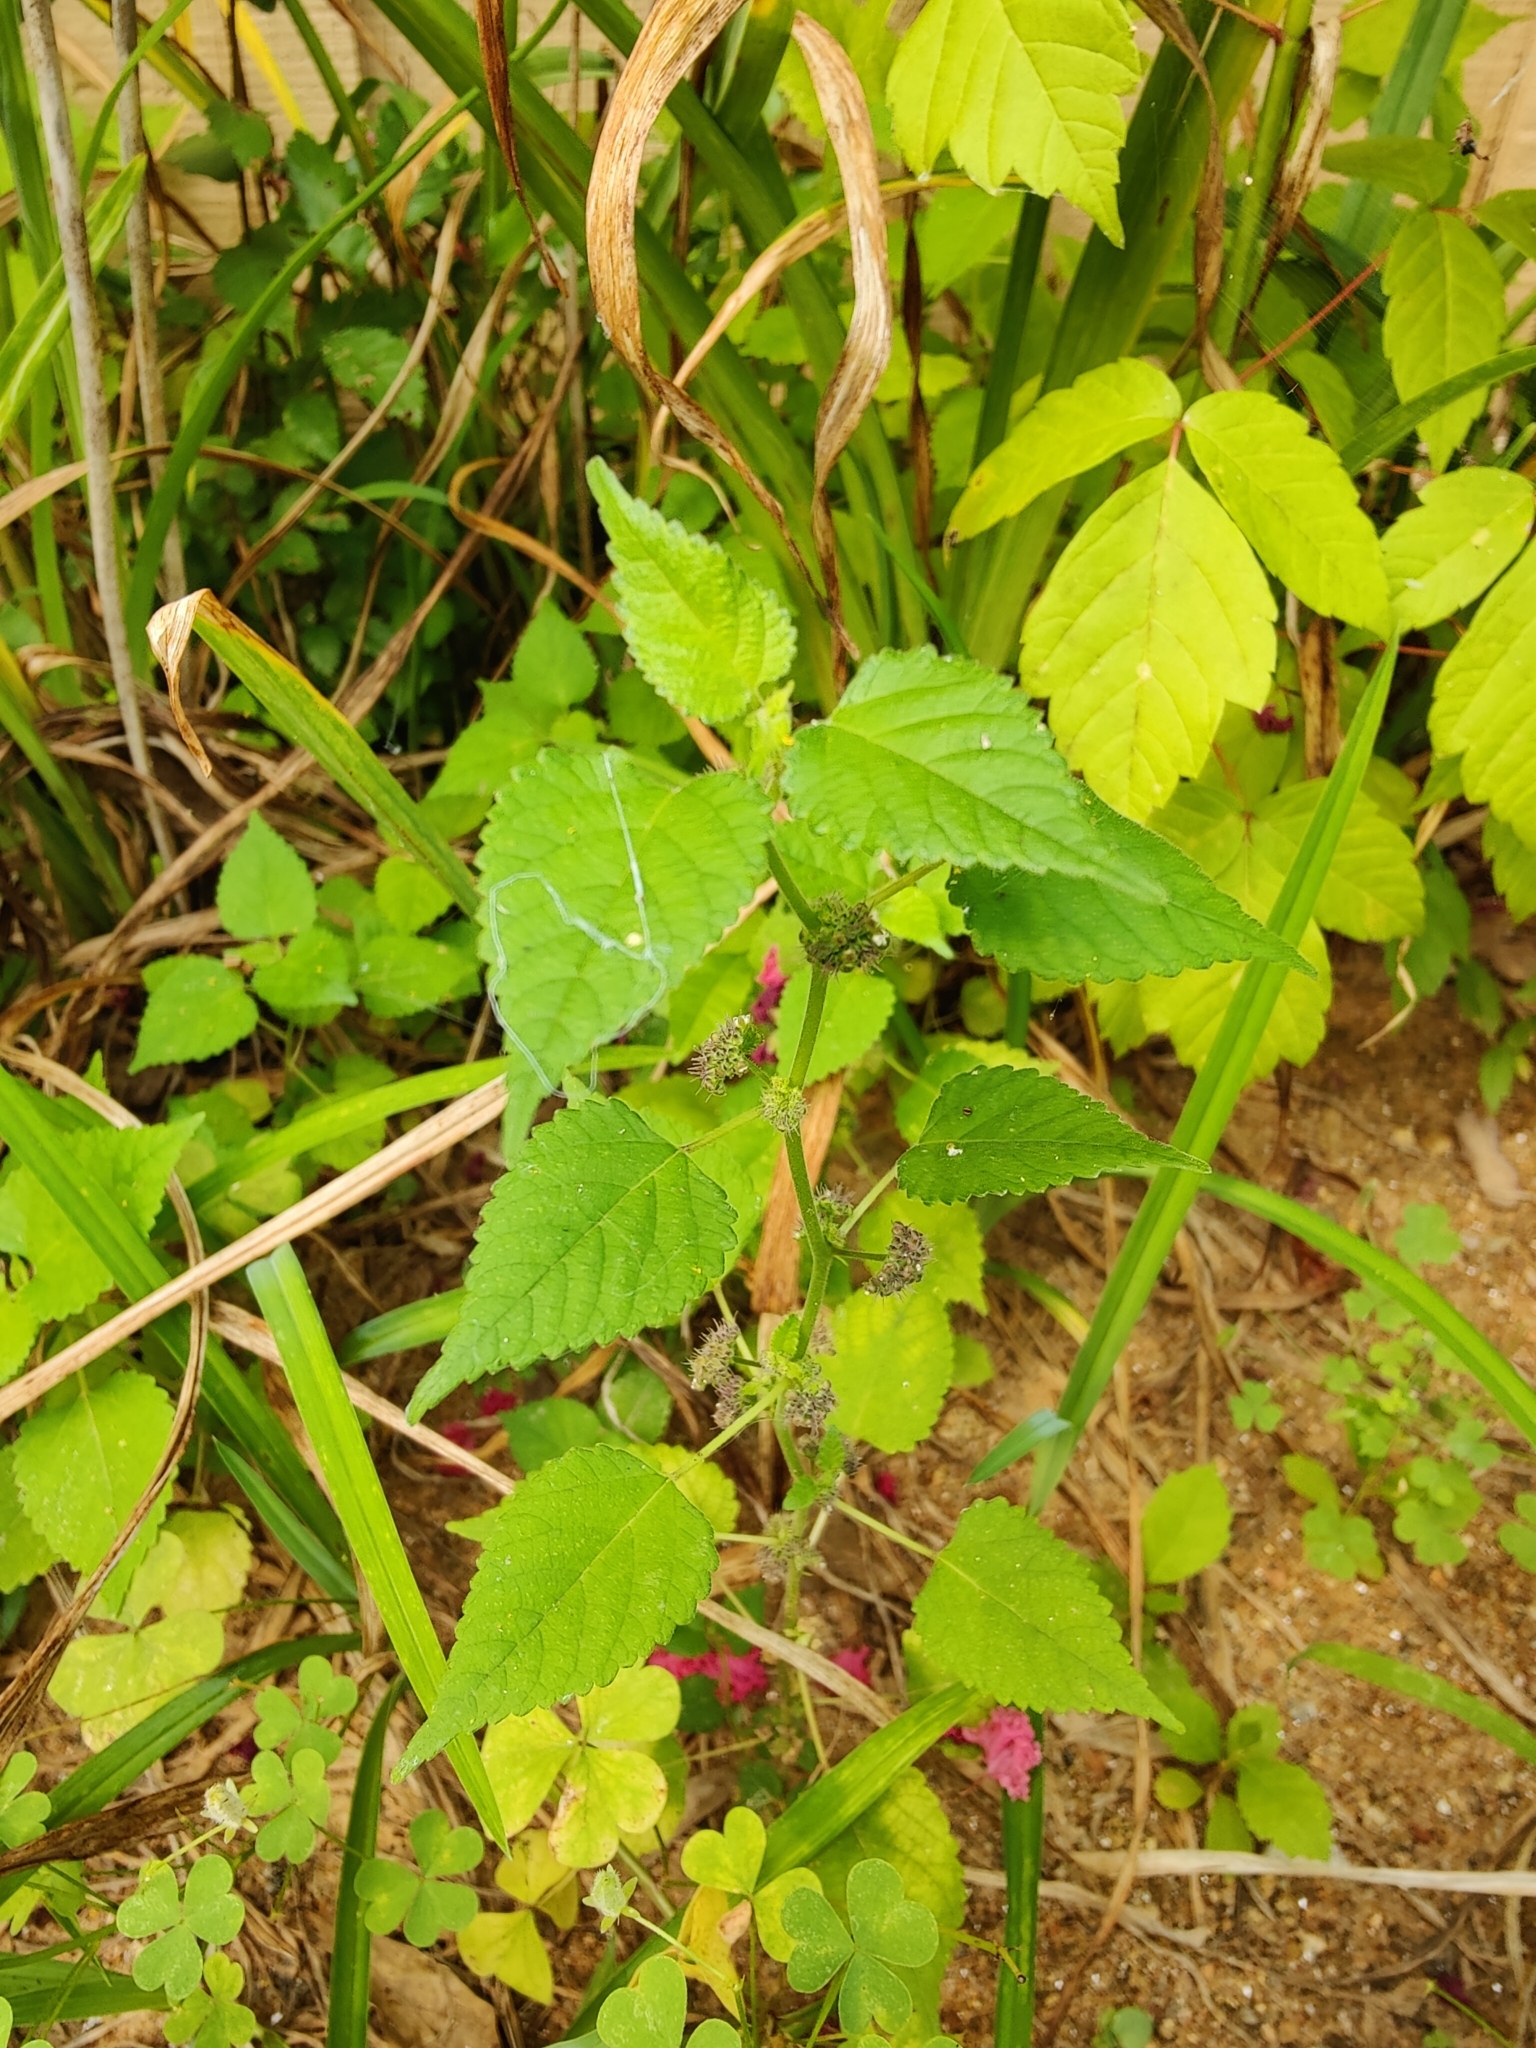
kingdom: Plantae
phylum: Tracheophyta
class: Magnoliopsida
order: Rosales
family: Moraceae
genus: Fatoua
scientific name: Fatoua villosa
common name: Hairy crabweed
